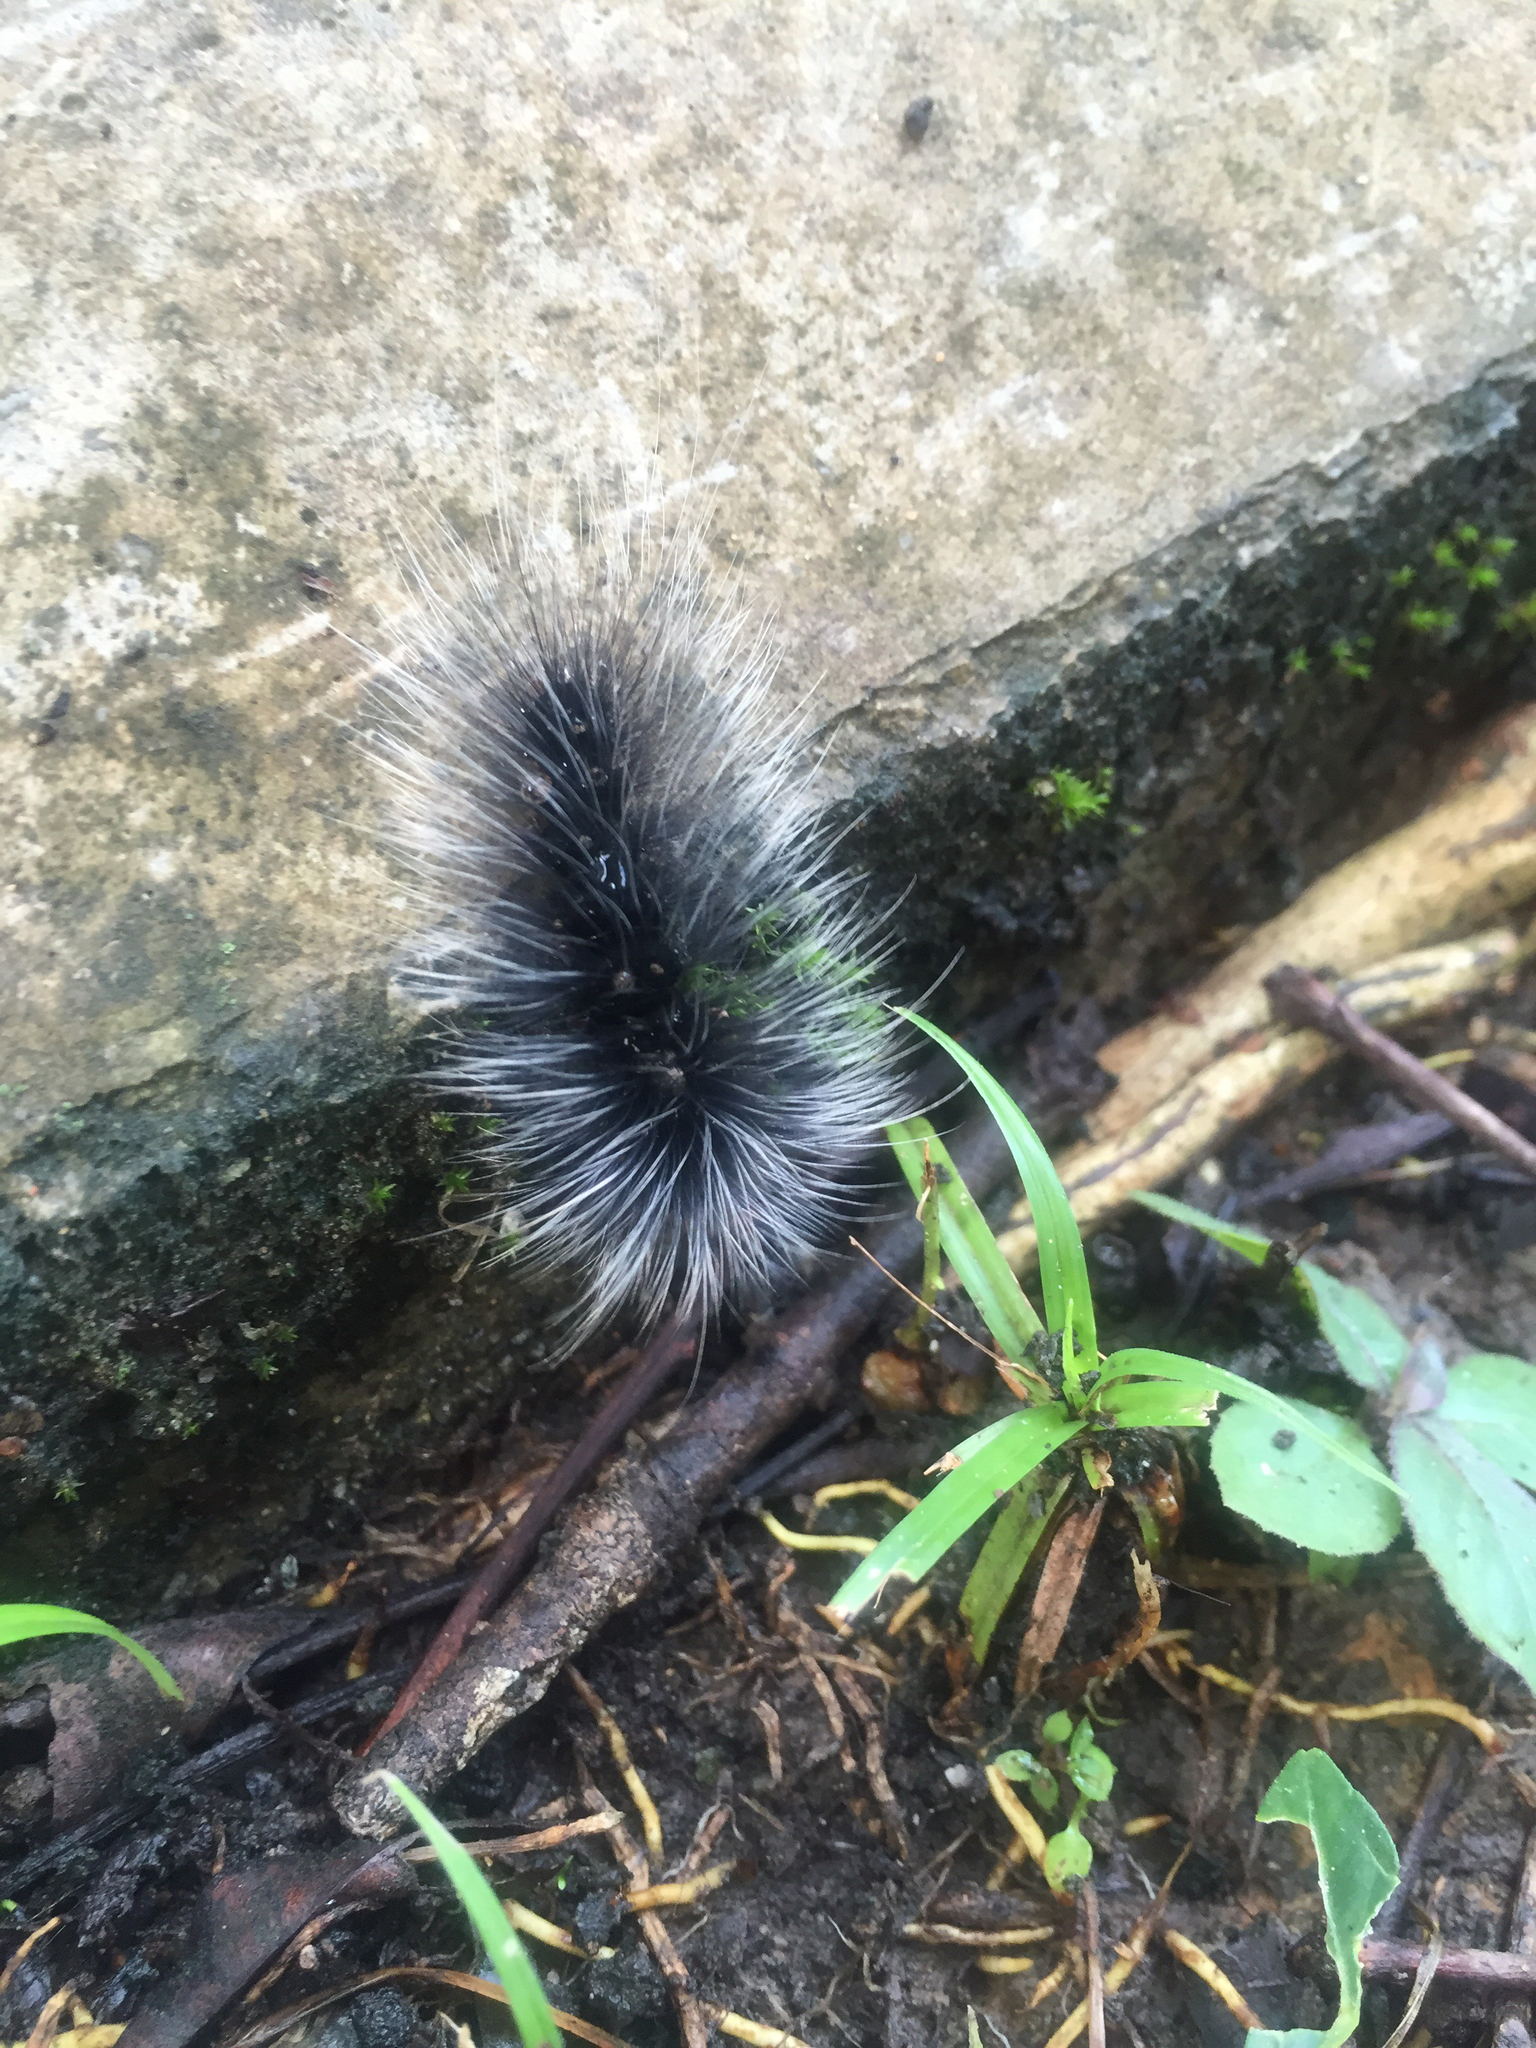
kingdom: Animalia
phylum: Arthropoda
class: Insecta
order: Lepidoptera
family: Erebidae
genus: Macrobrochis
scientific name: Macrobrochis gigas
